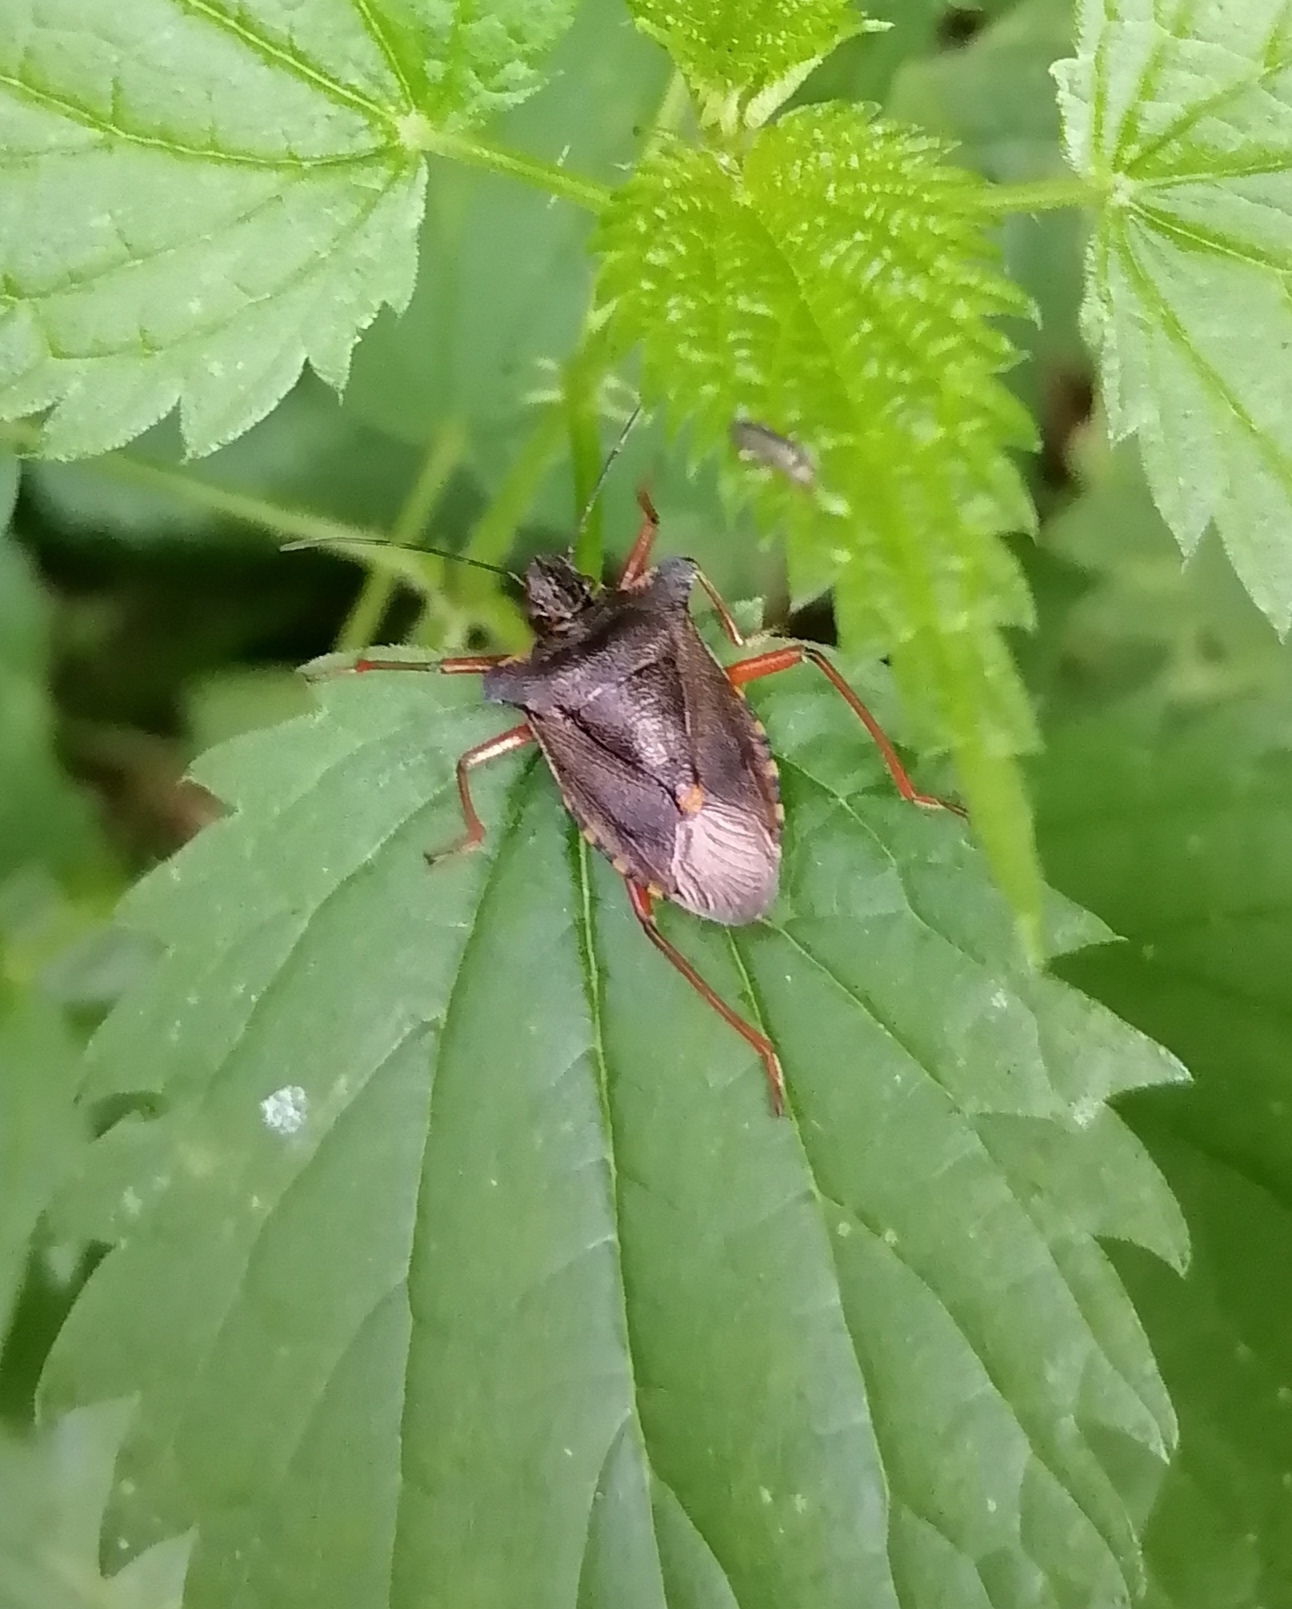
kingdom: Animalia
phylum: Arthropoda
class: Insecta
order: Hemiptera
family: Pentatomidae
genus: Pentatoma
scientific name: Pentatoma rufipes
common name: Forest bug
